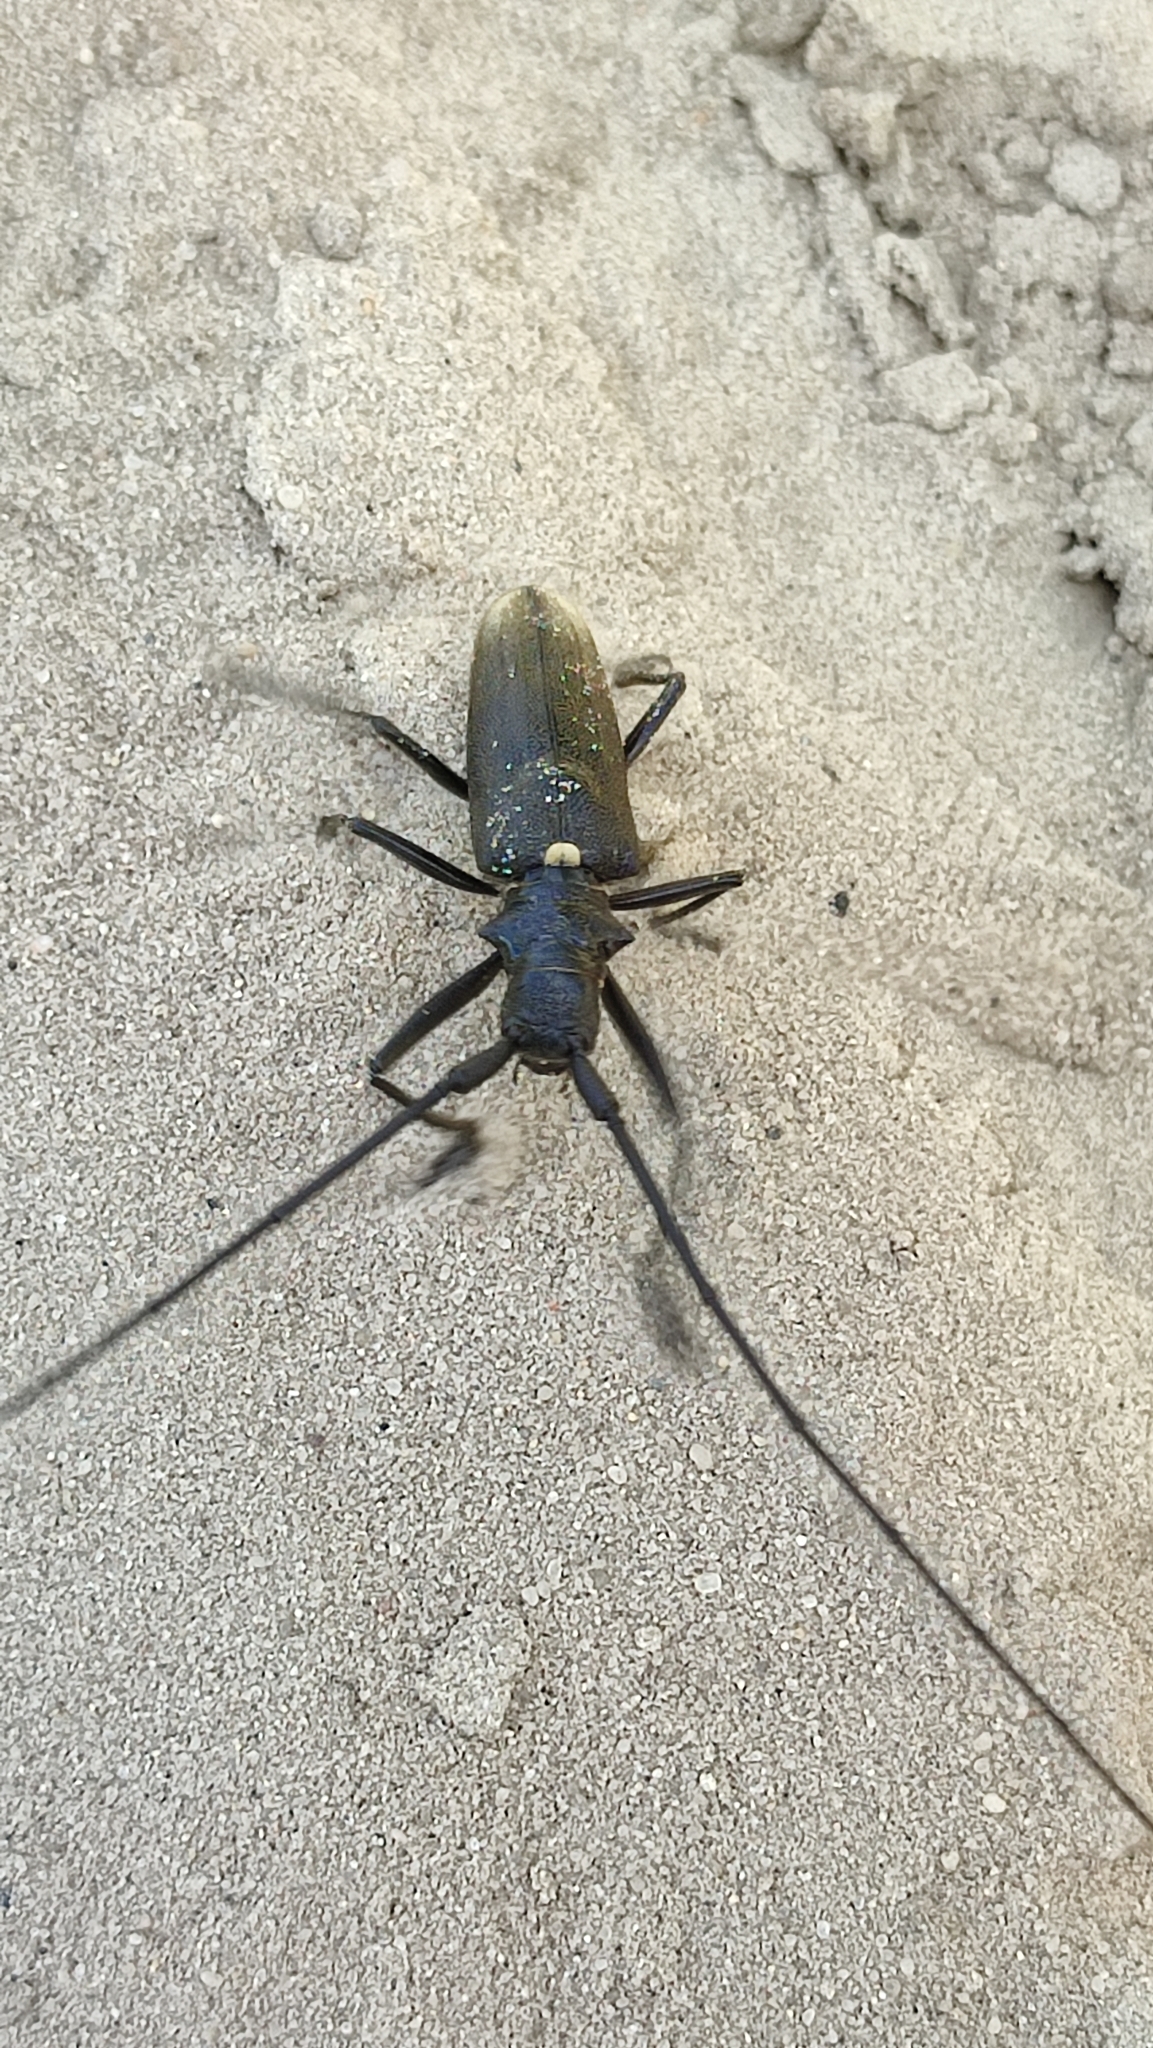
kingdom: Animalia
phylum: Arthropoda
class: Insecta
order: Coleoptera
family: Cerambycidae
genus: Monochamus
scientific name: Monochamus sartor
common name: Pine sawyer
